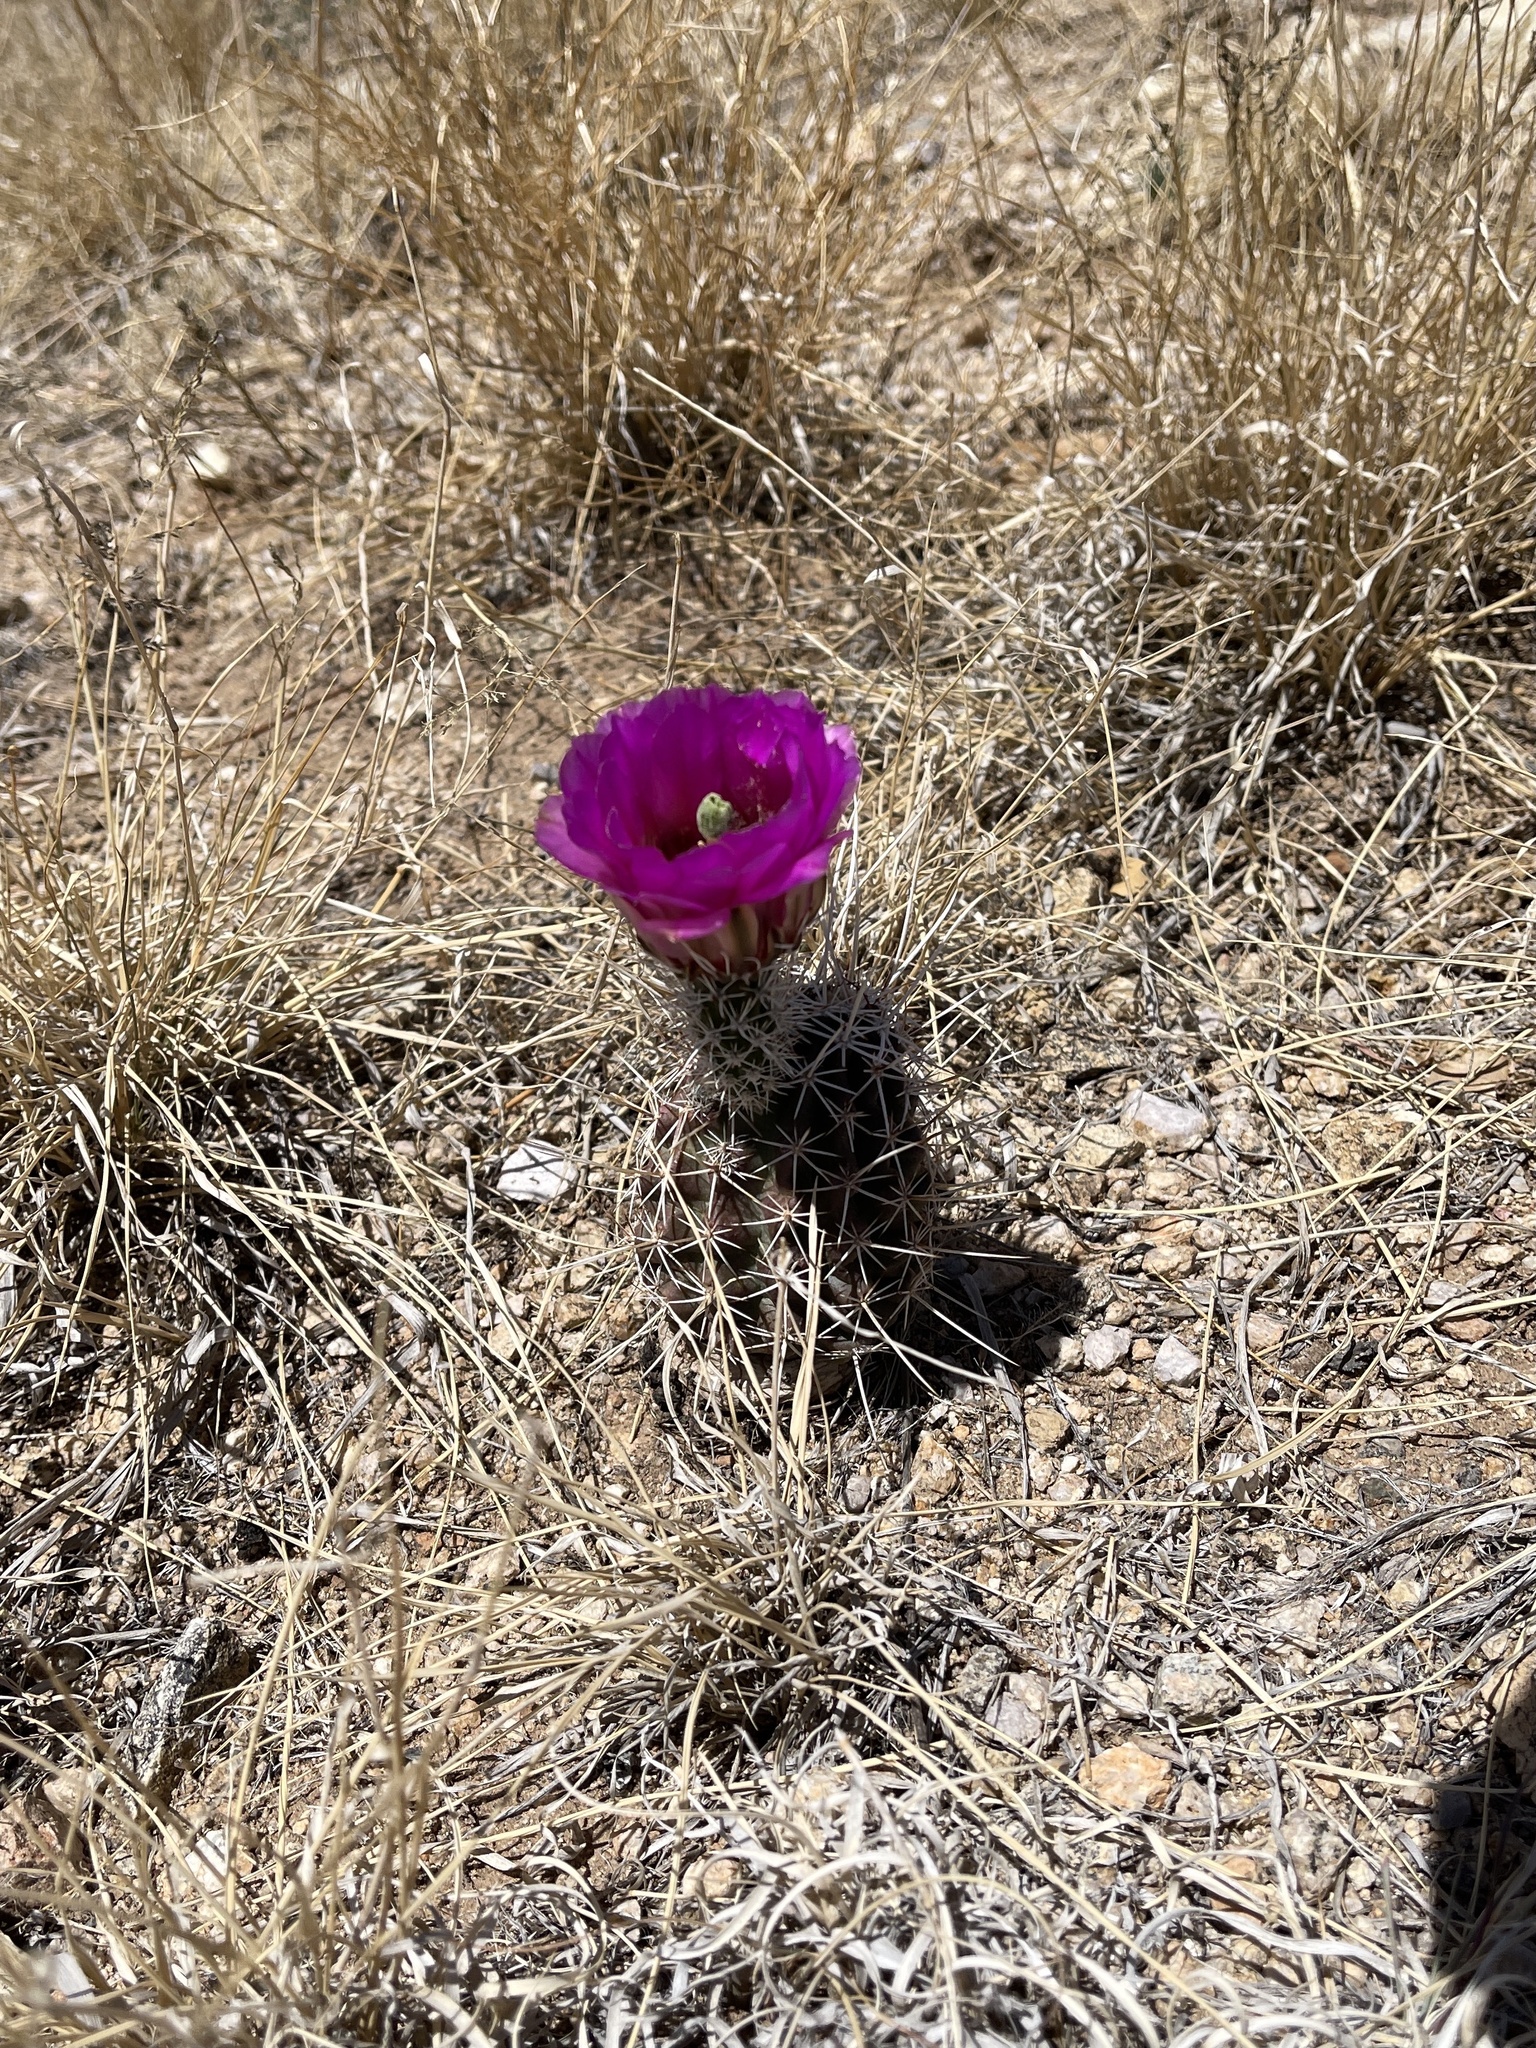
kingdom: Plantae
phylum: Tracheophyta
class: Magnoliopsida
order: Caryophyllales
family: Cactaceae
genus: Echinocereus
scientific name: Echinocereus fendleri
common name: Fendler's hedgehog cactus
